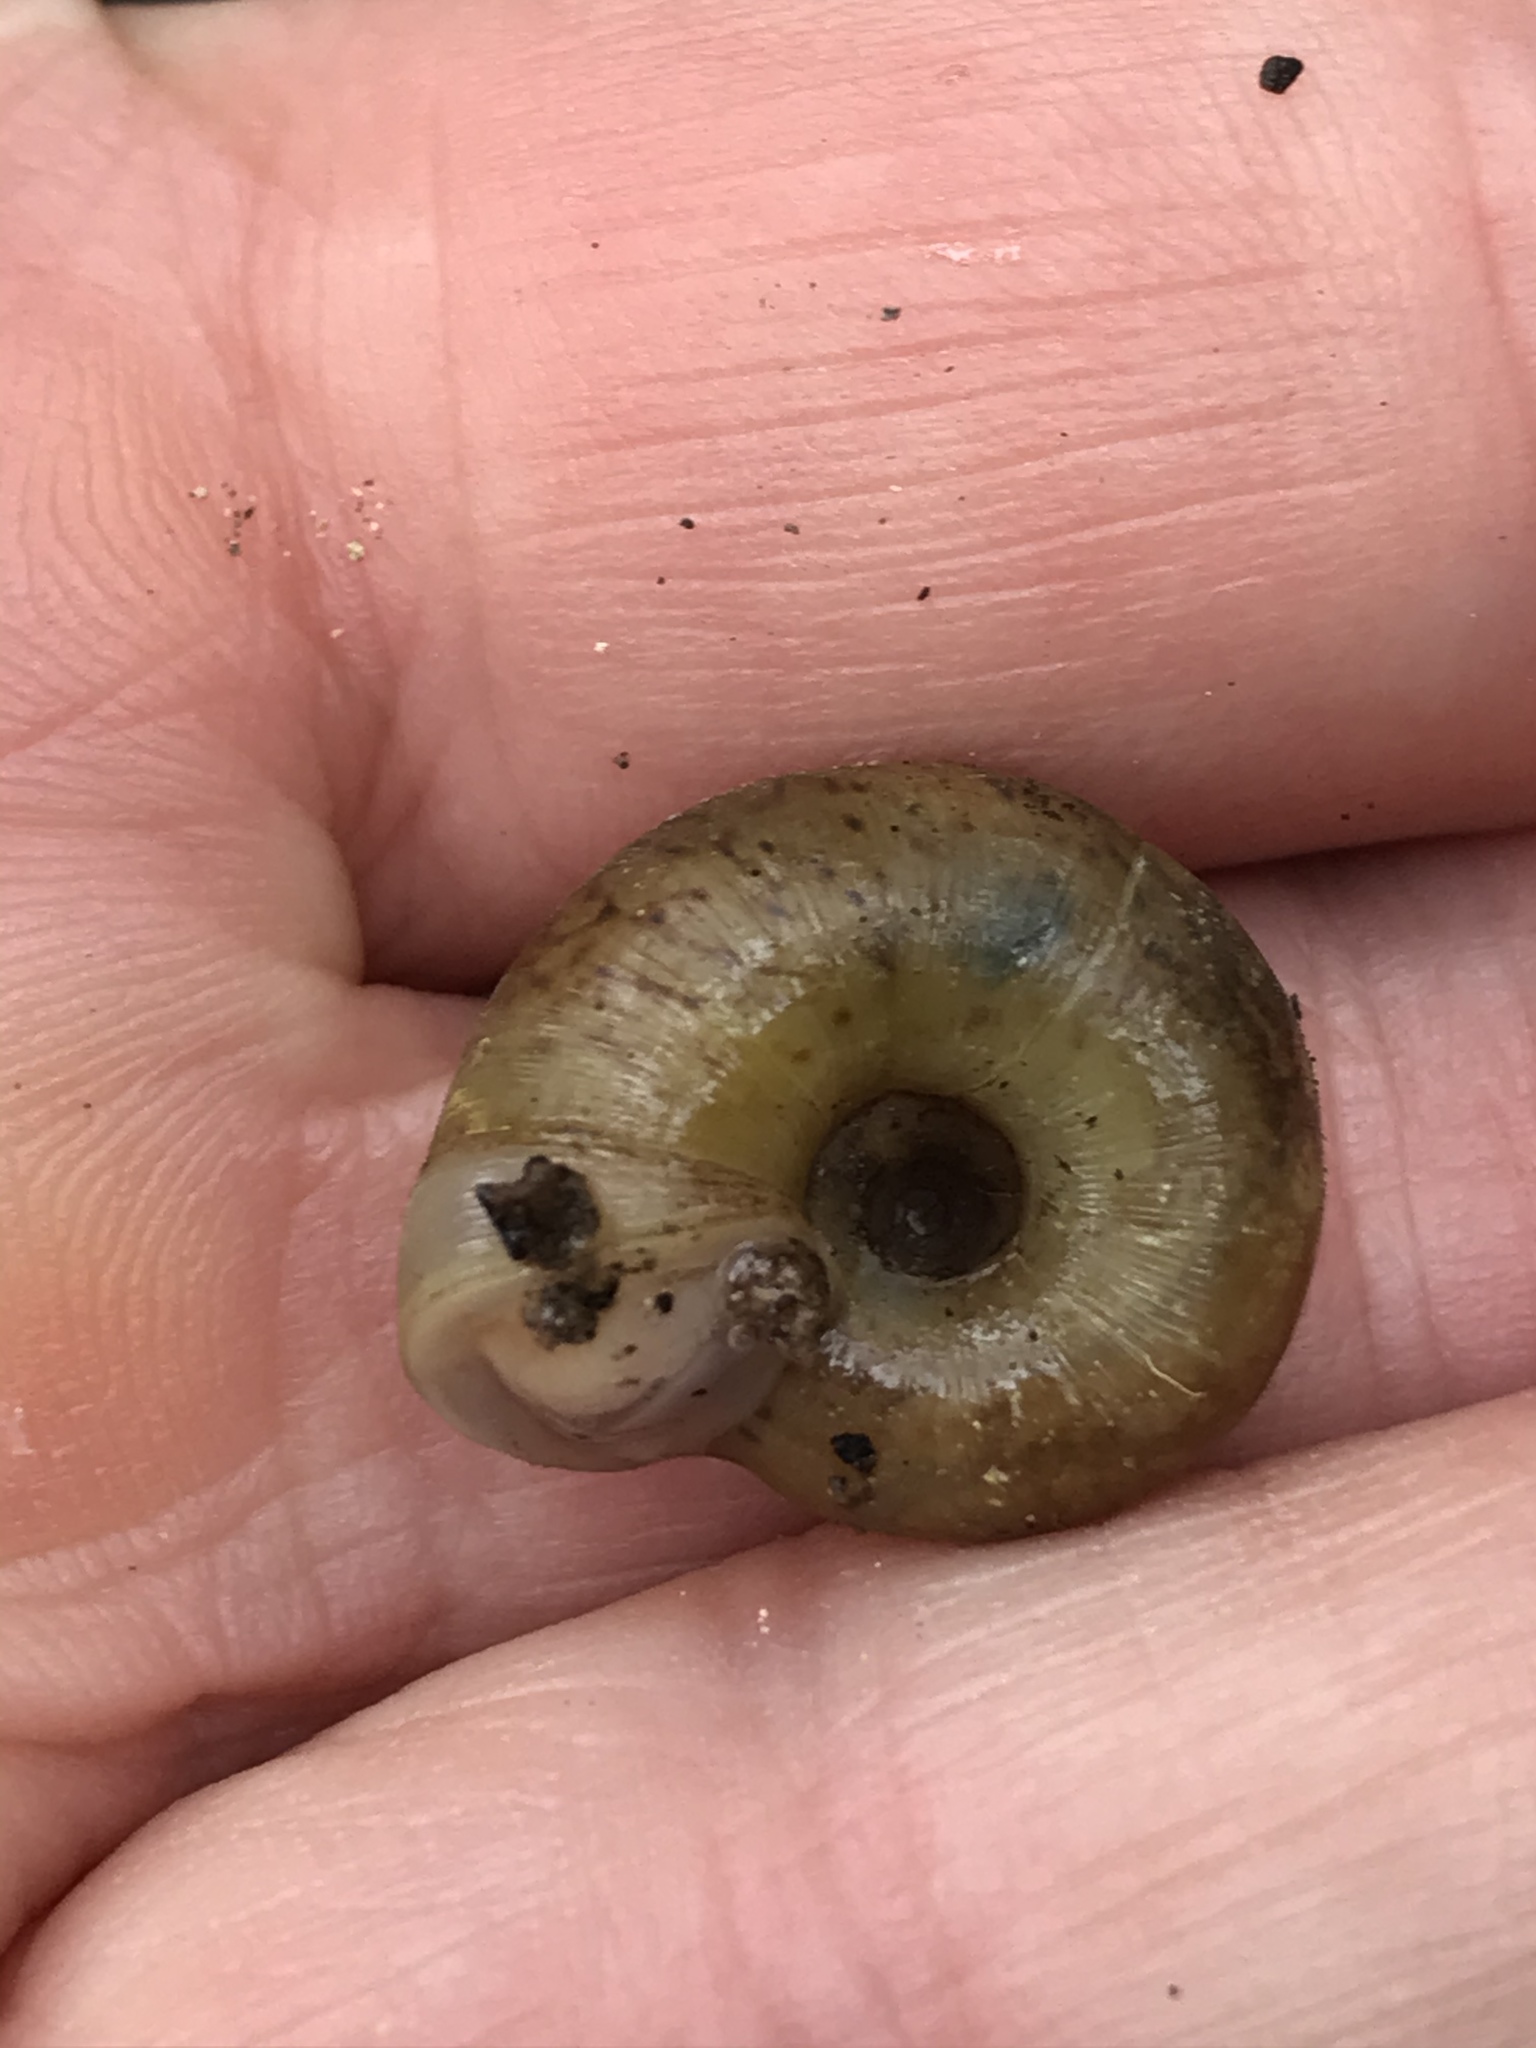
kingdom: Animalia
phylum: Mollusca
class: Gastropoda
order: Stylommatophora
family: Haplotrematidae
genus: Haplotrema
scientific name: Haplotrema minimum
